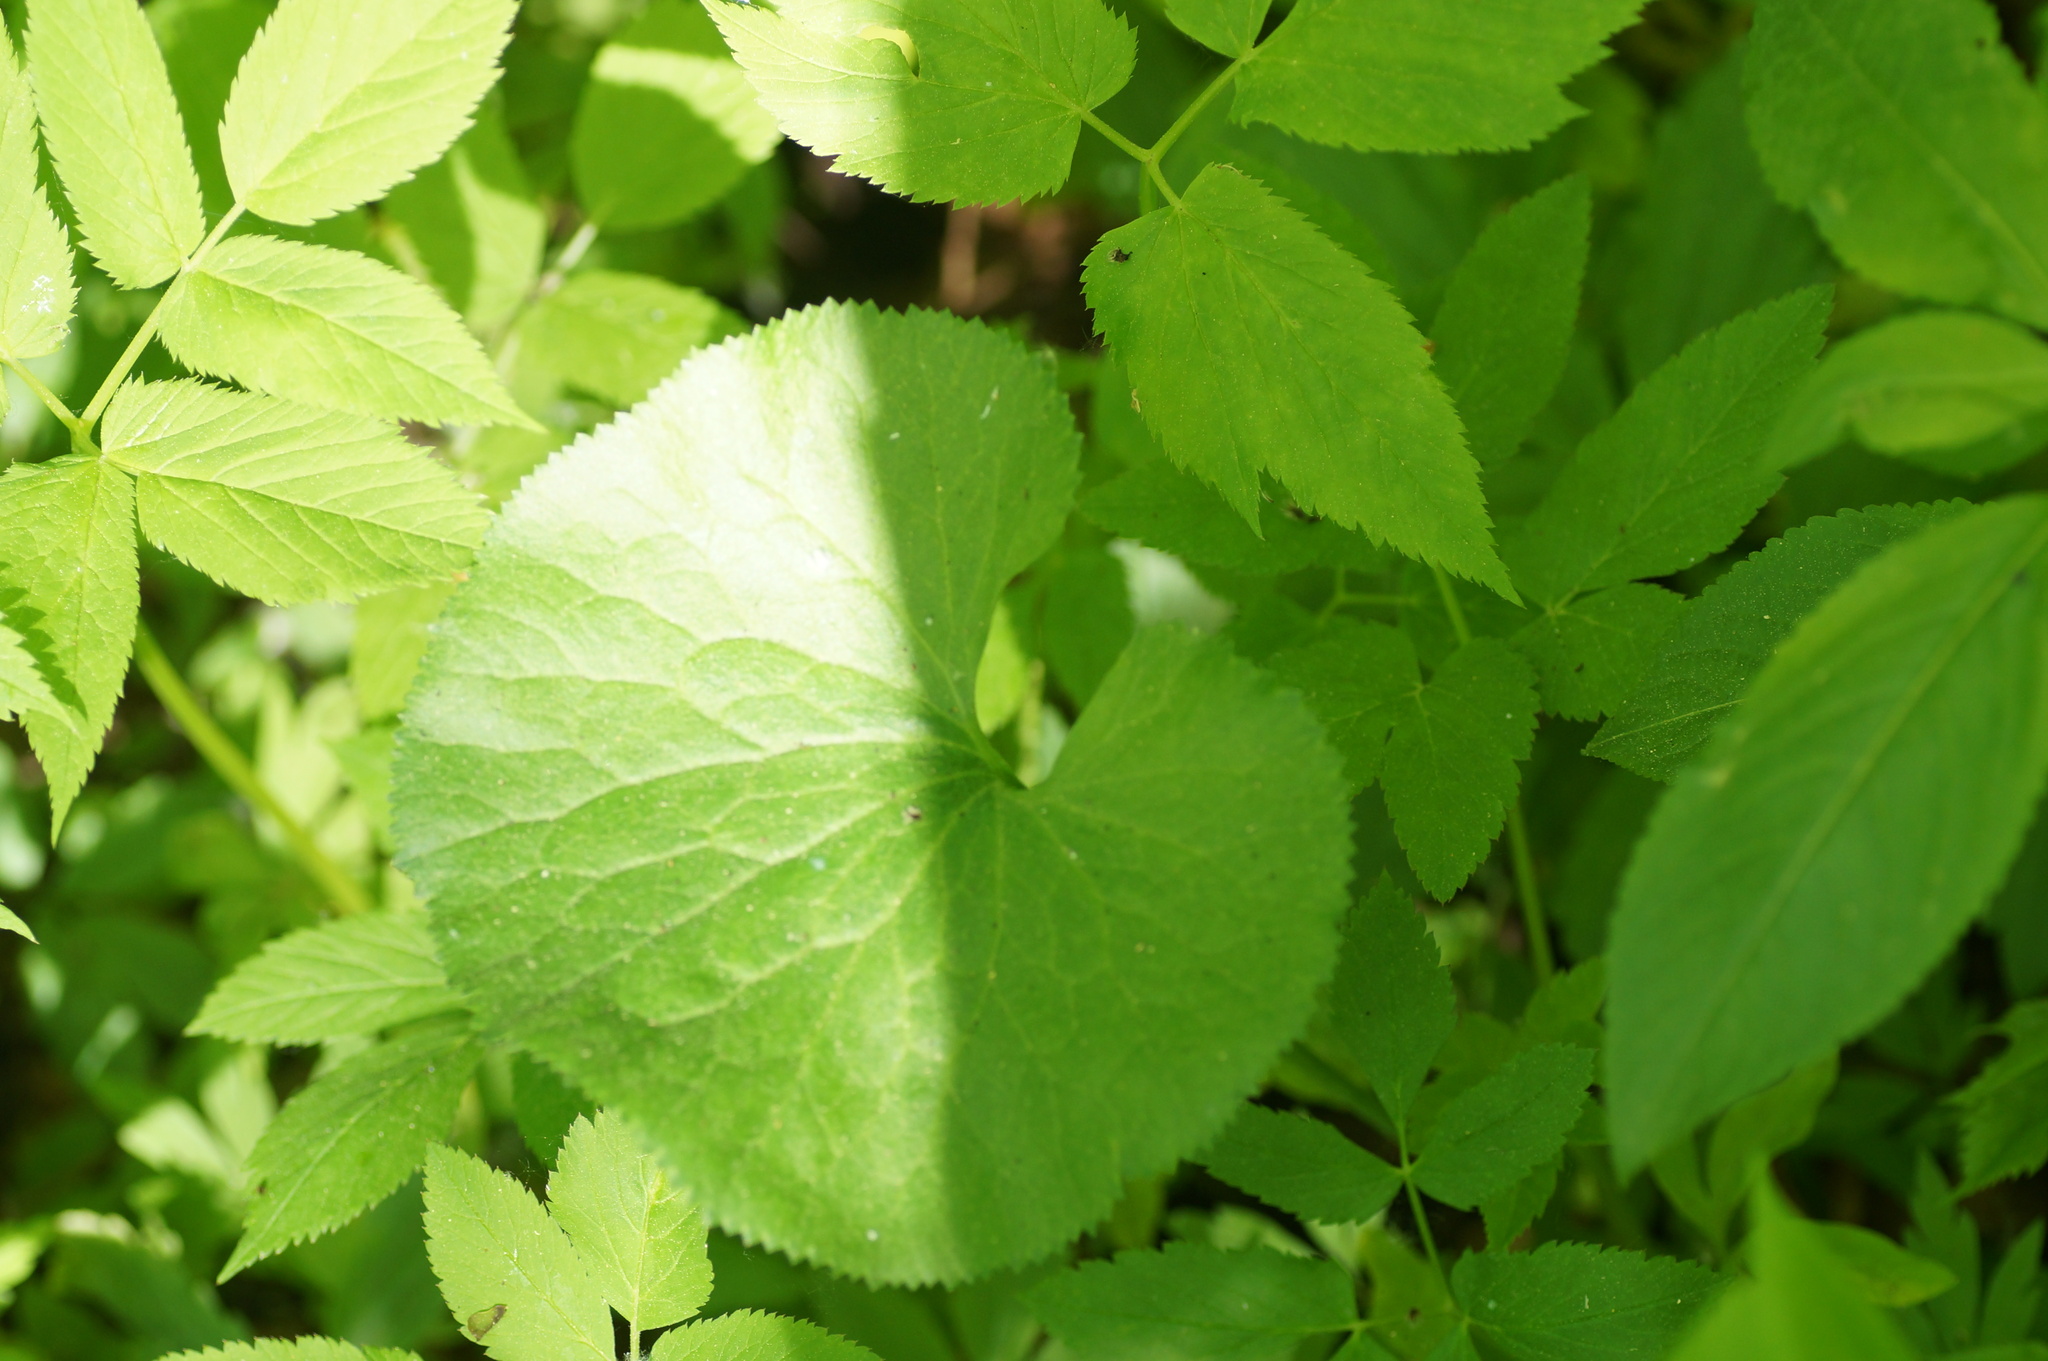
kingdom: Plantae
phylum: Tracheophyta
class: Magnoliopsida
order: Ranunculales
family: Ranunculaceae
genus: Ranunculus
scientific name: Ranunculus cassubicus
